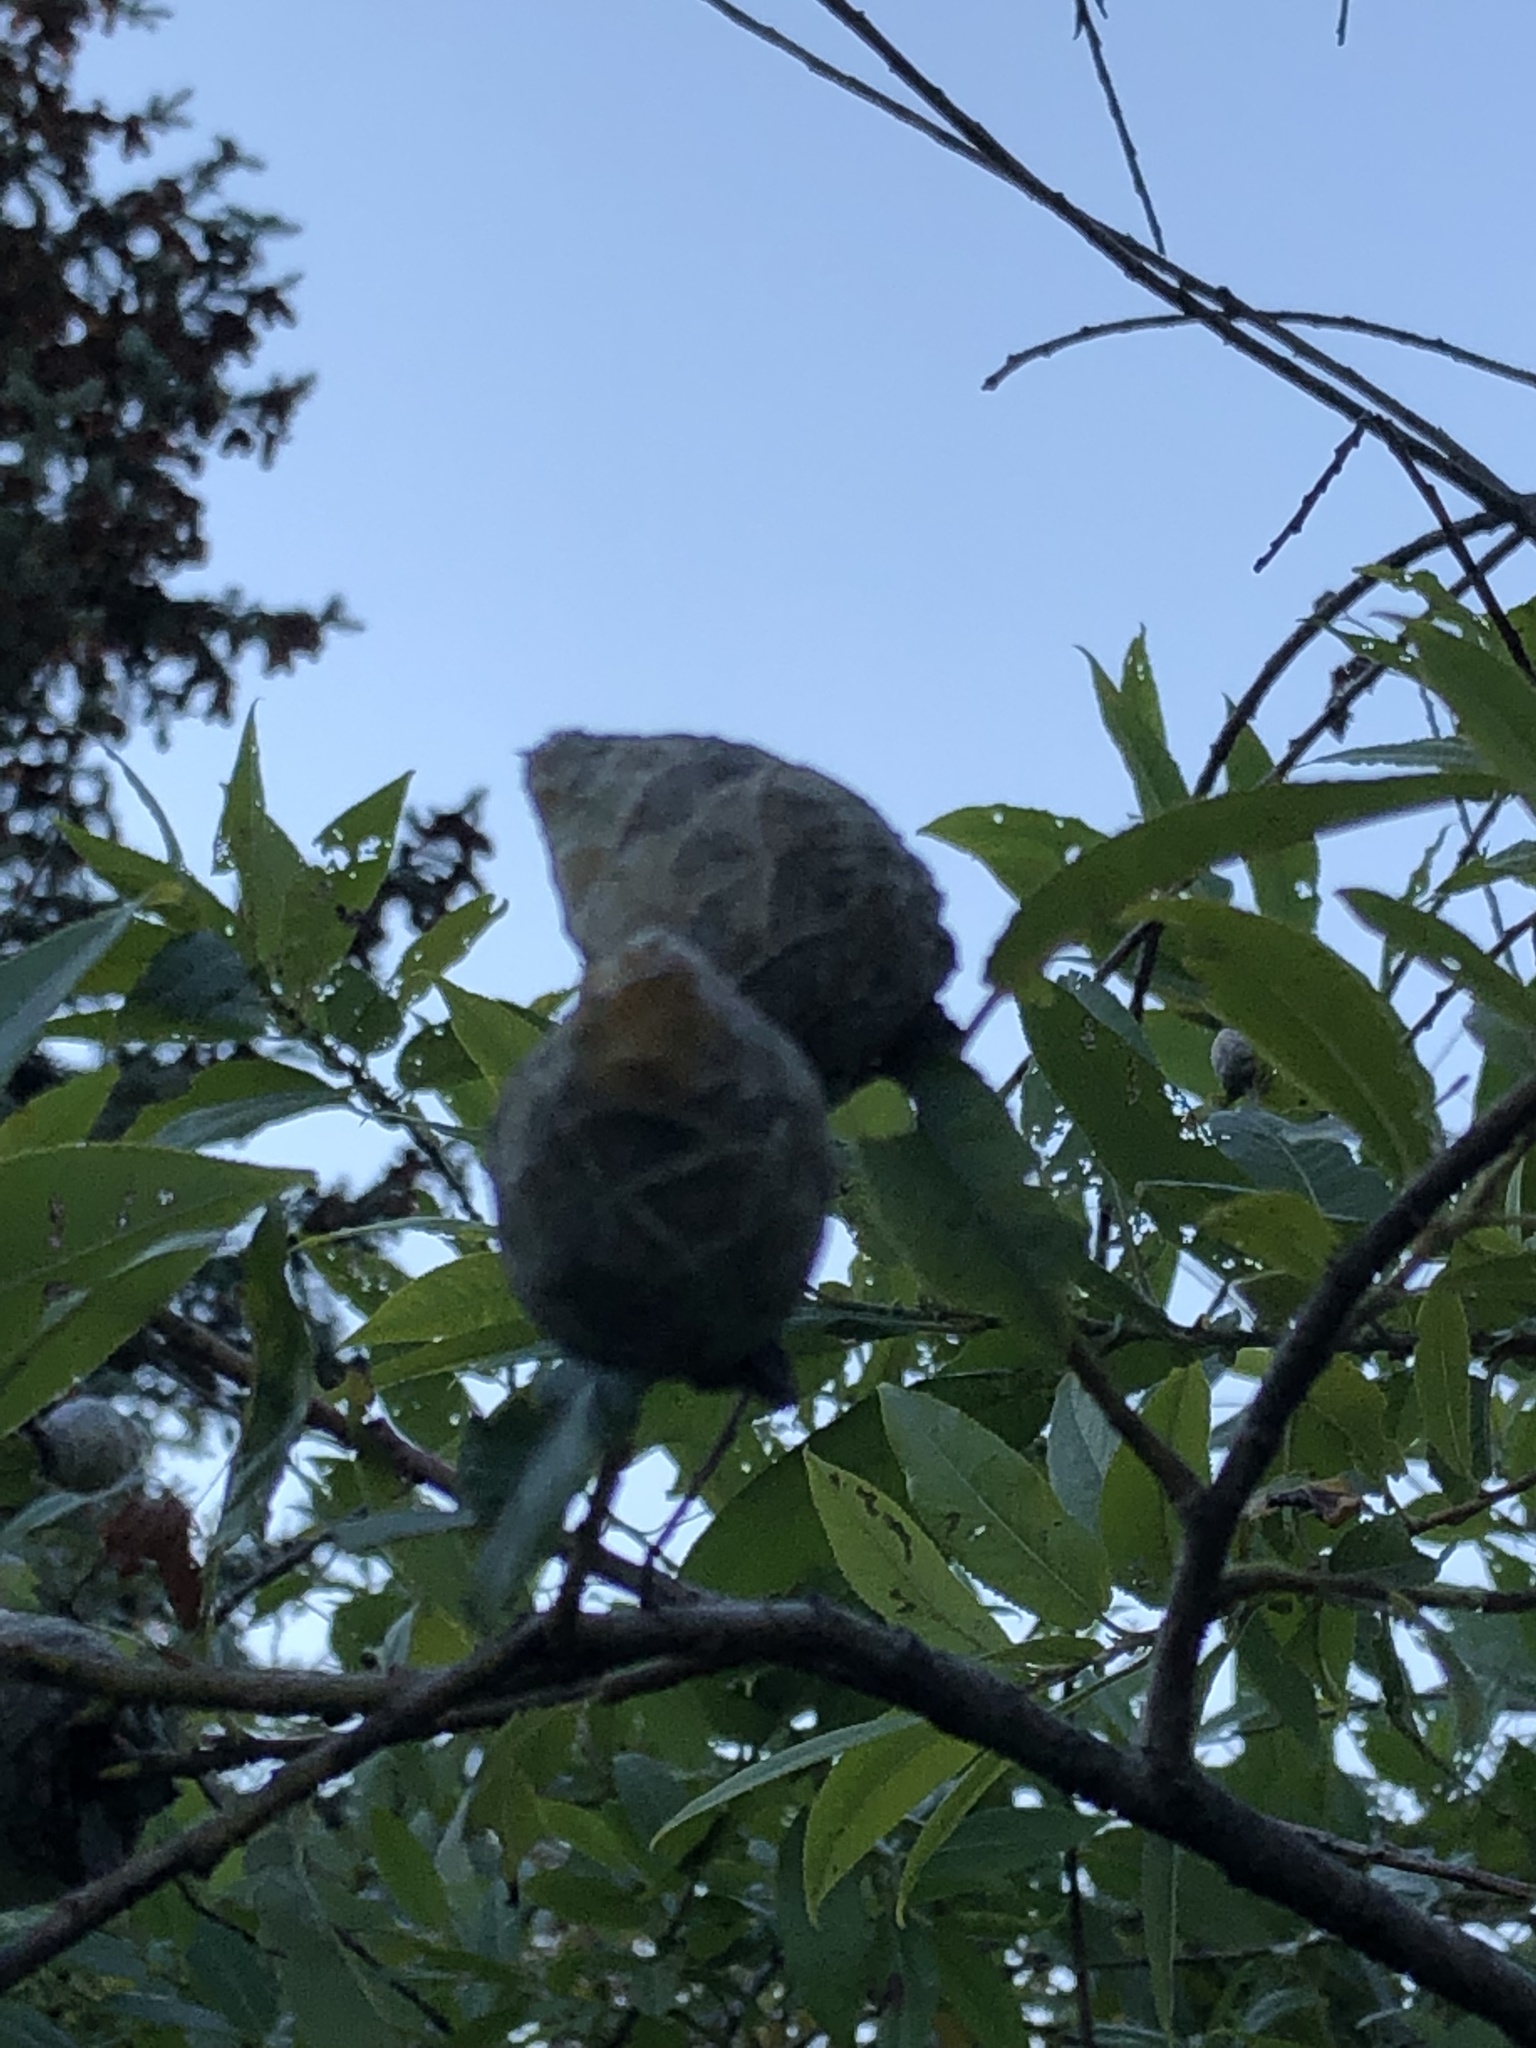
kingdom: Animalia
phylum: Arthropoda
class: Insecta
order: Diptera
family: Cecidomyiidae
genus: Rabdophaga
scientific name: Rabdophaga strobiloides
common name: Willow pinecone gall midge
